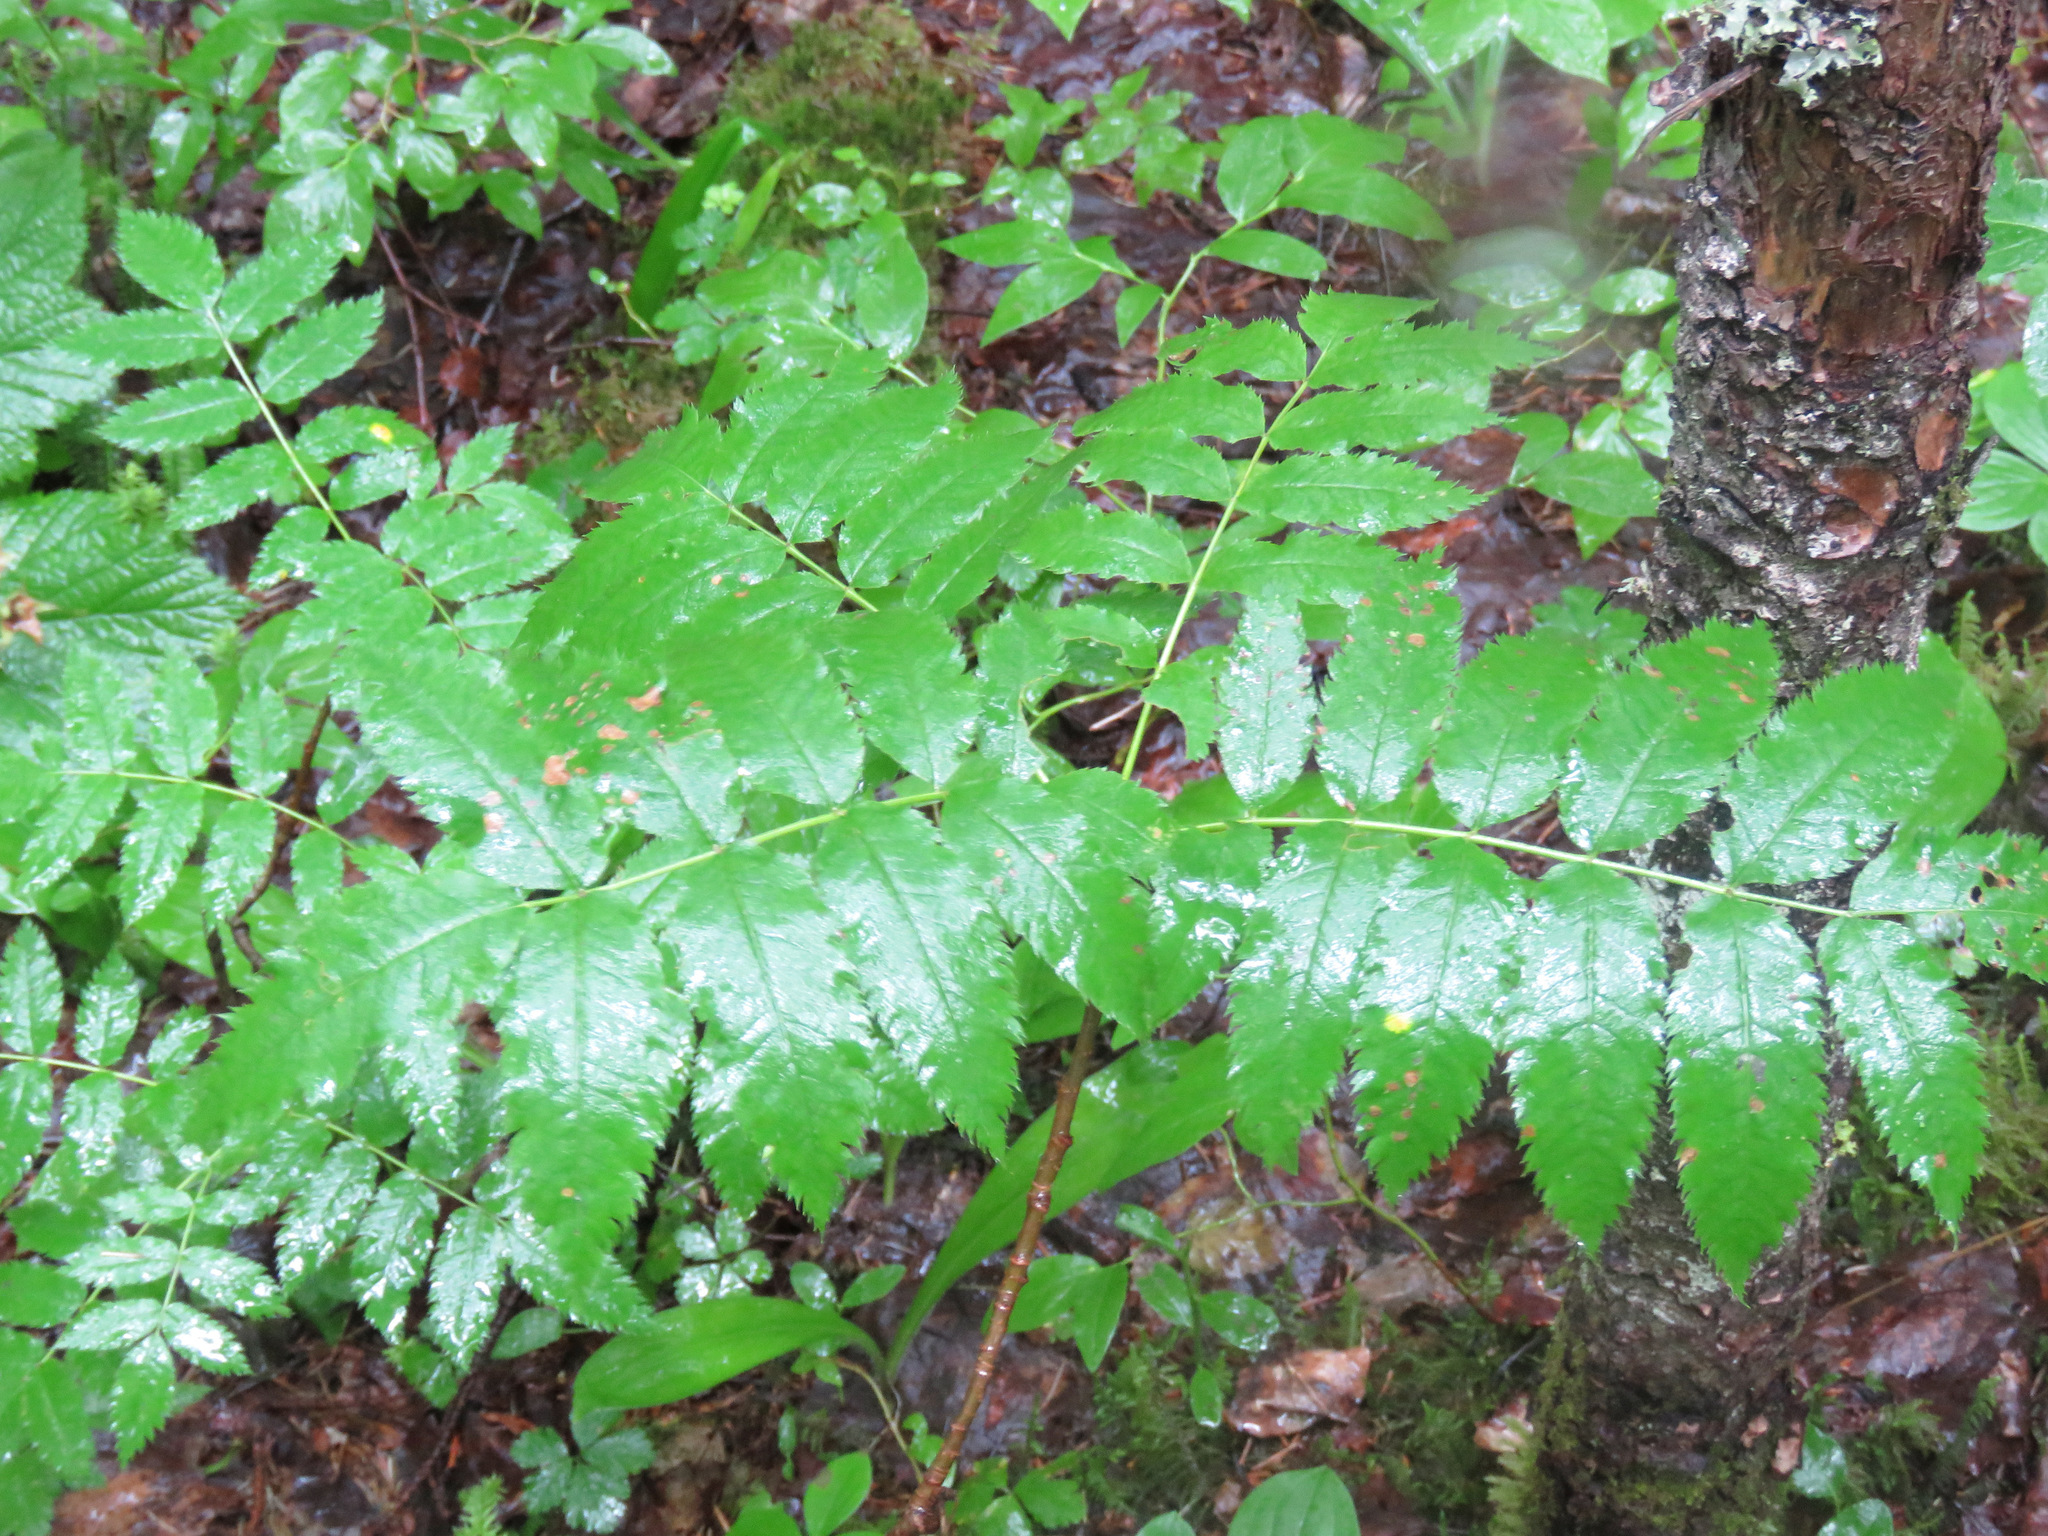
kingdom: Plantae
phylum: Tracheophyta
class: Magnoliopsida
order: Rosales
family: Rosaceae
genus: Sorbus
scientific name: Sorbus scopulina
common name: Greene's mountain-ash
